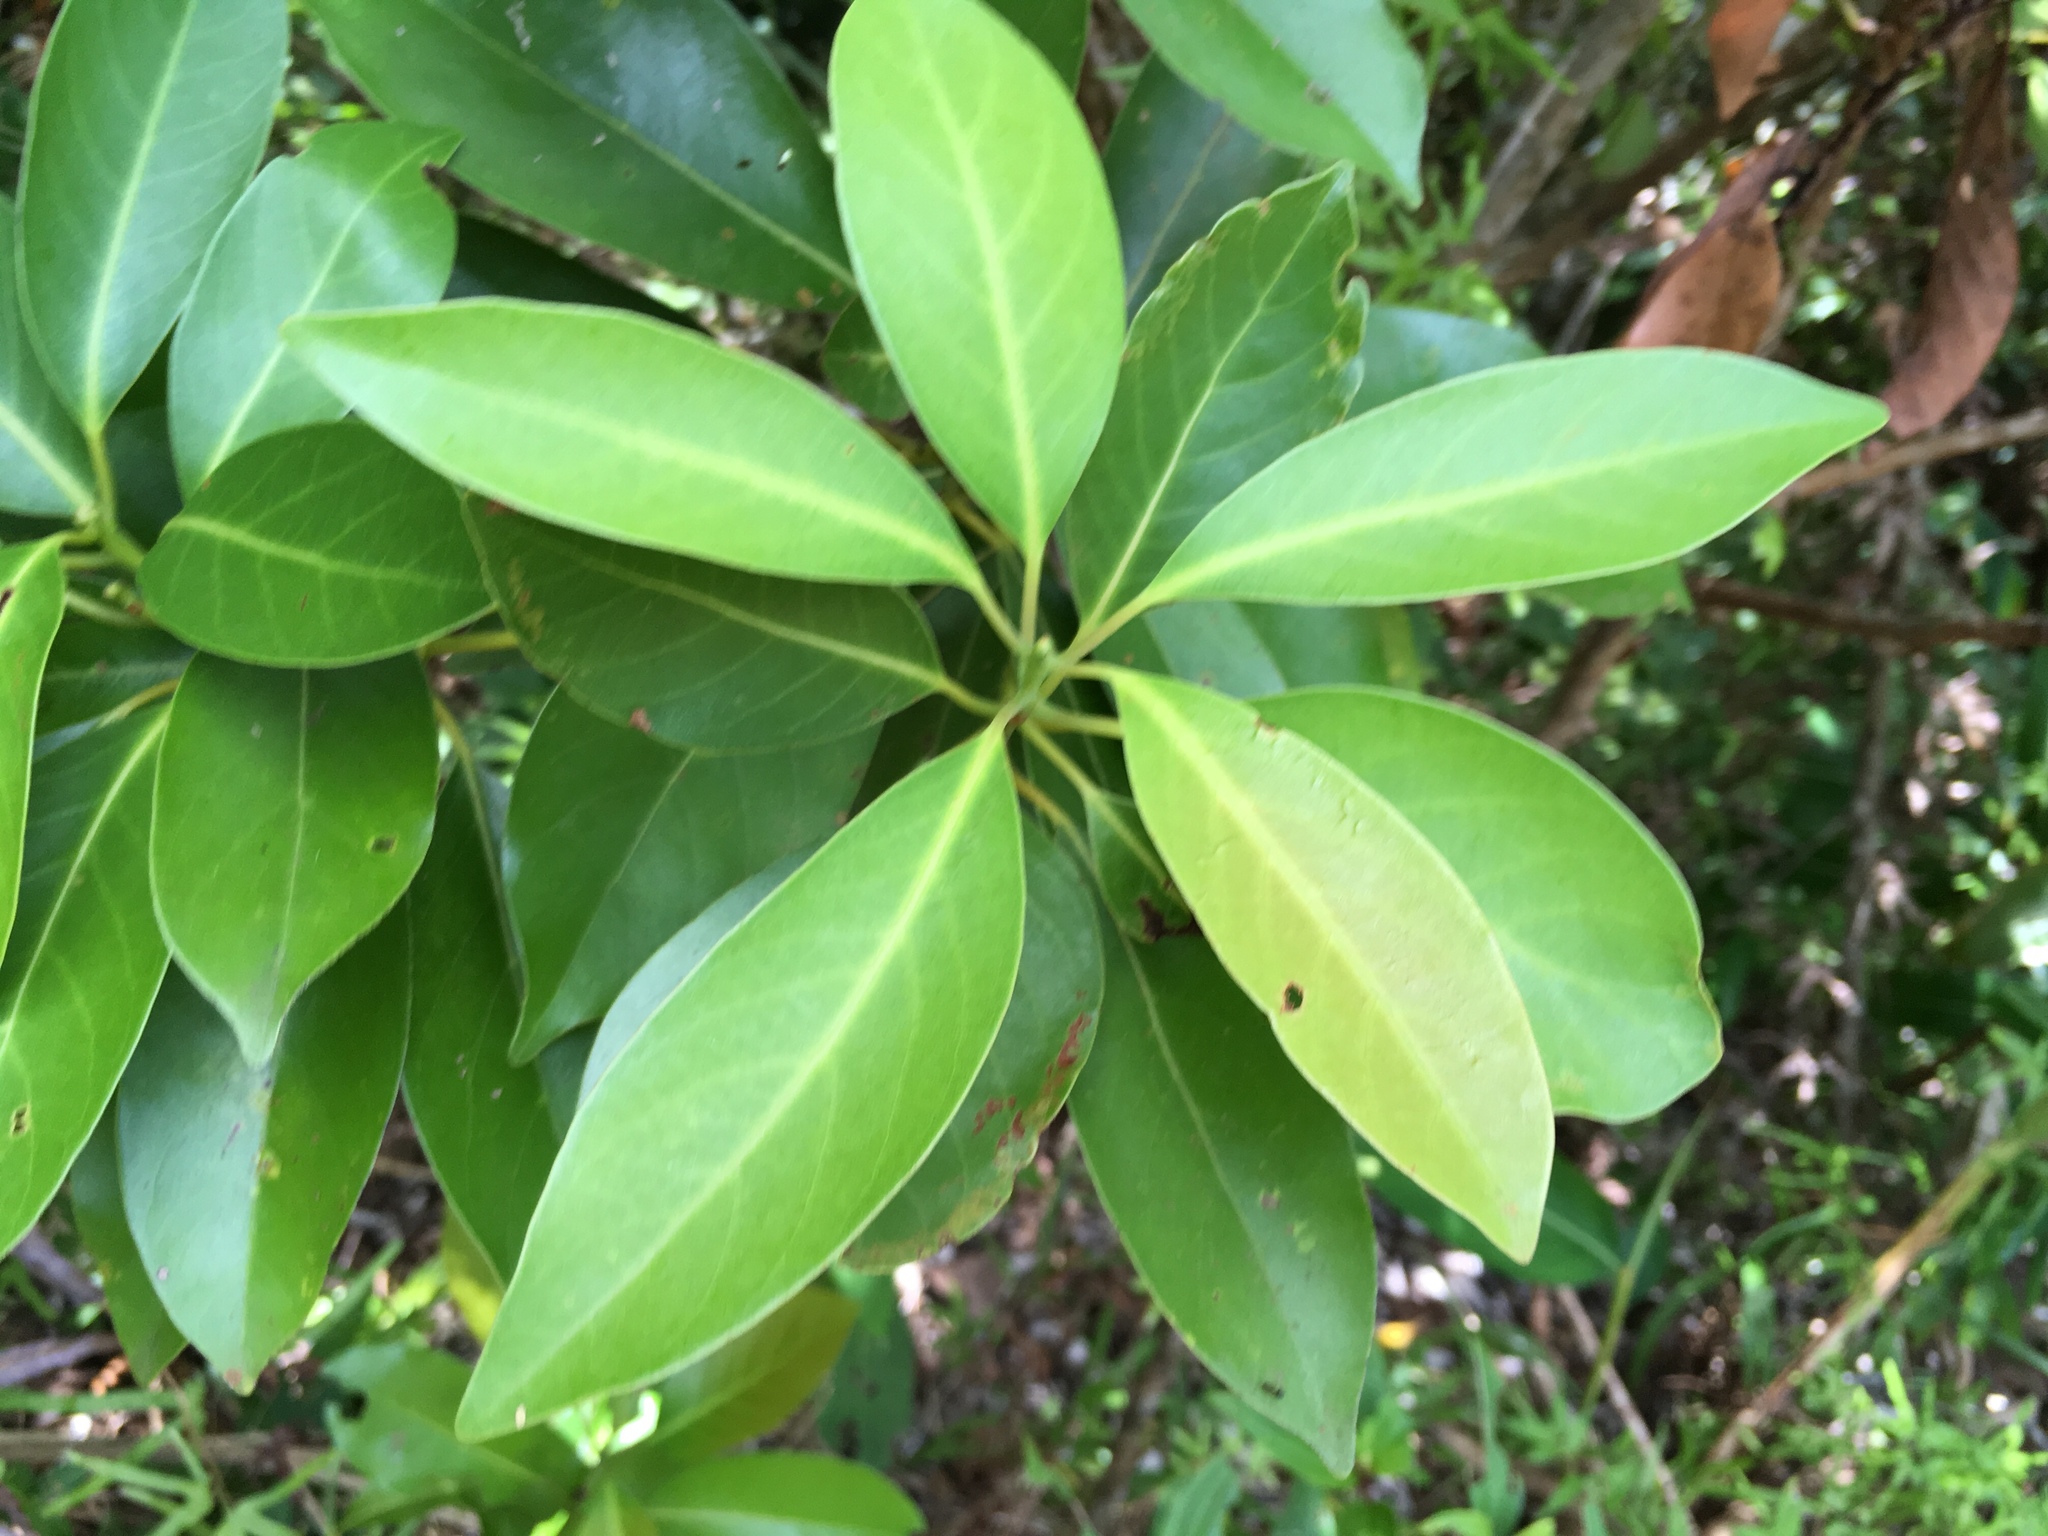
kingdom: Plantae
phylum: Tracheophyta
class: Magnoliopsida
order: Laurales
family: Lauraceae
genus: Machilus
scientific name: Machilus thunbergii
